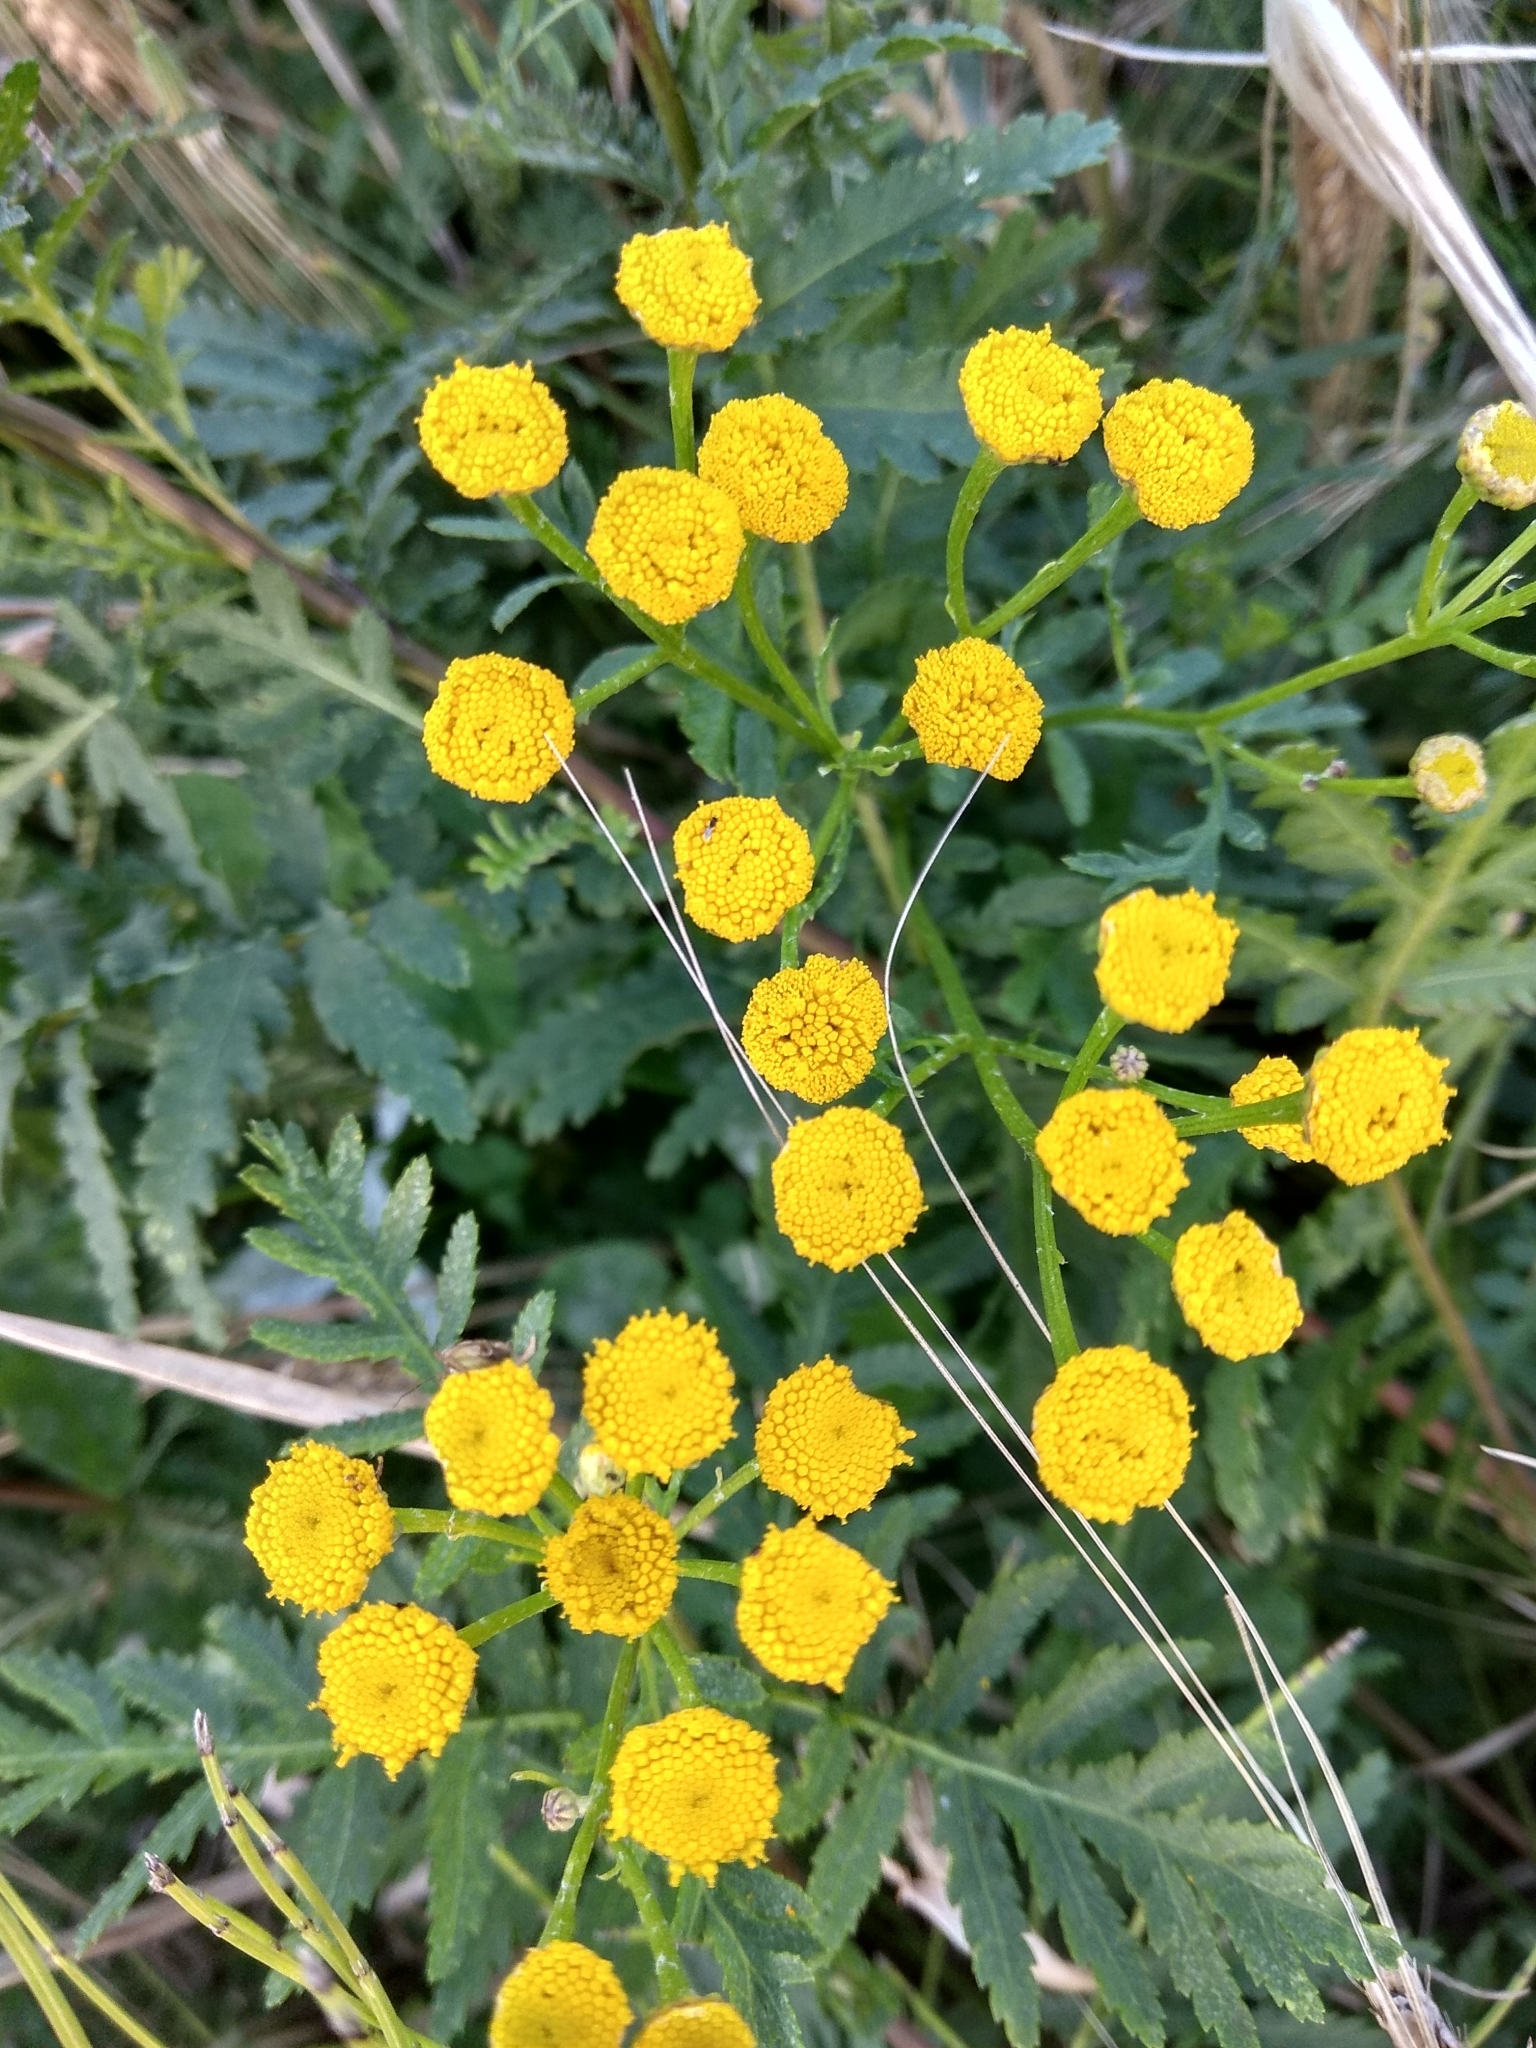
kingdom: Plantae
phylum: Tracheophyta
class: Magnoliopsida
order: Asterales
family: Asteraceae
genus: Tanacetum
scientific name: Tanacetum vulgare
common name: Common tansy
